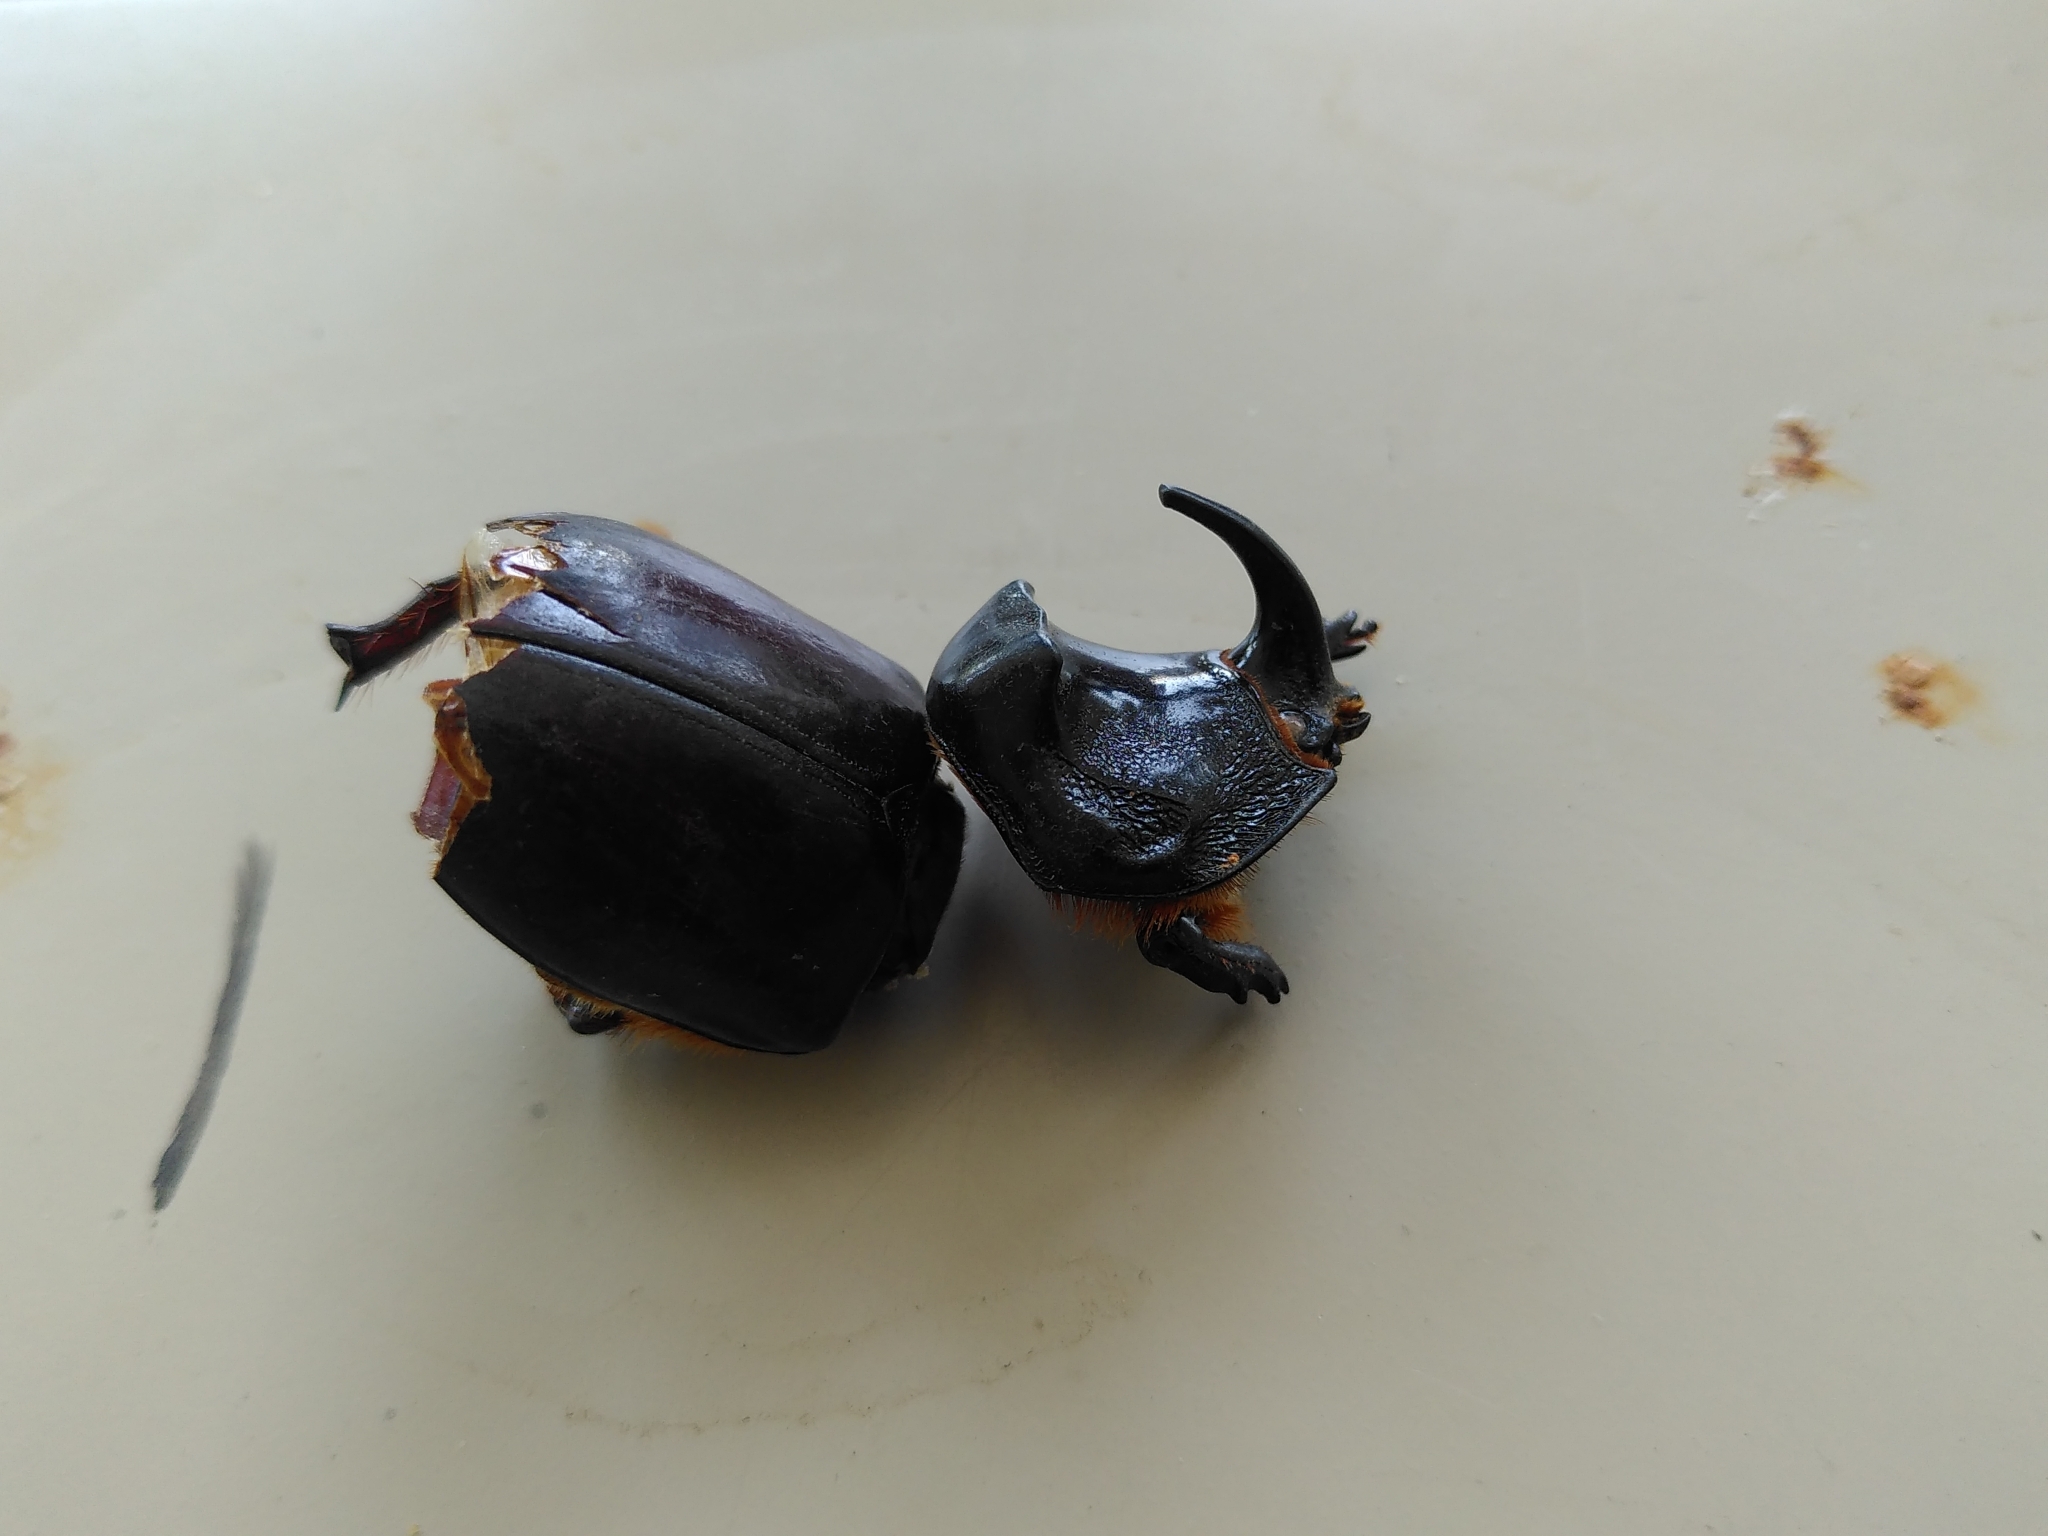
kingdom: Animalia
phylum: Arthropoda
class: Insecta
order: Coleoptera
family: Scarabaeidae
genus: Oryctes
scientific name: Oryctes nasicornis
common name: European rhinoceros beetle
